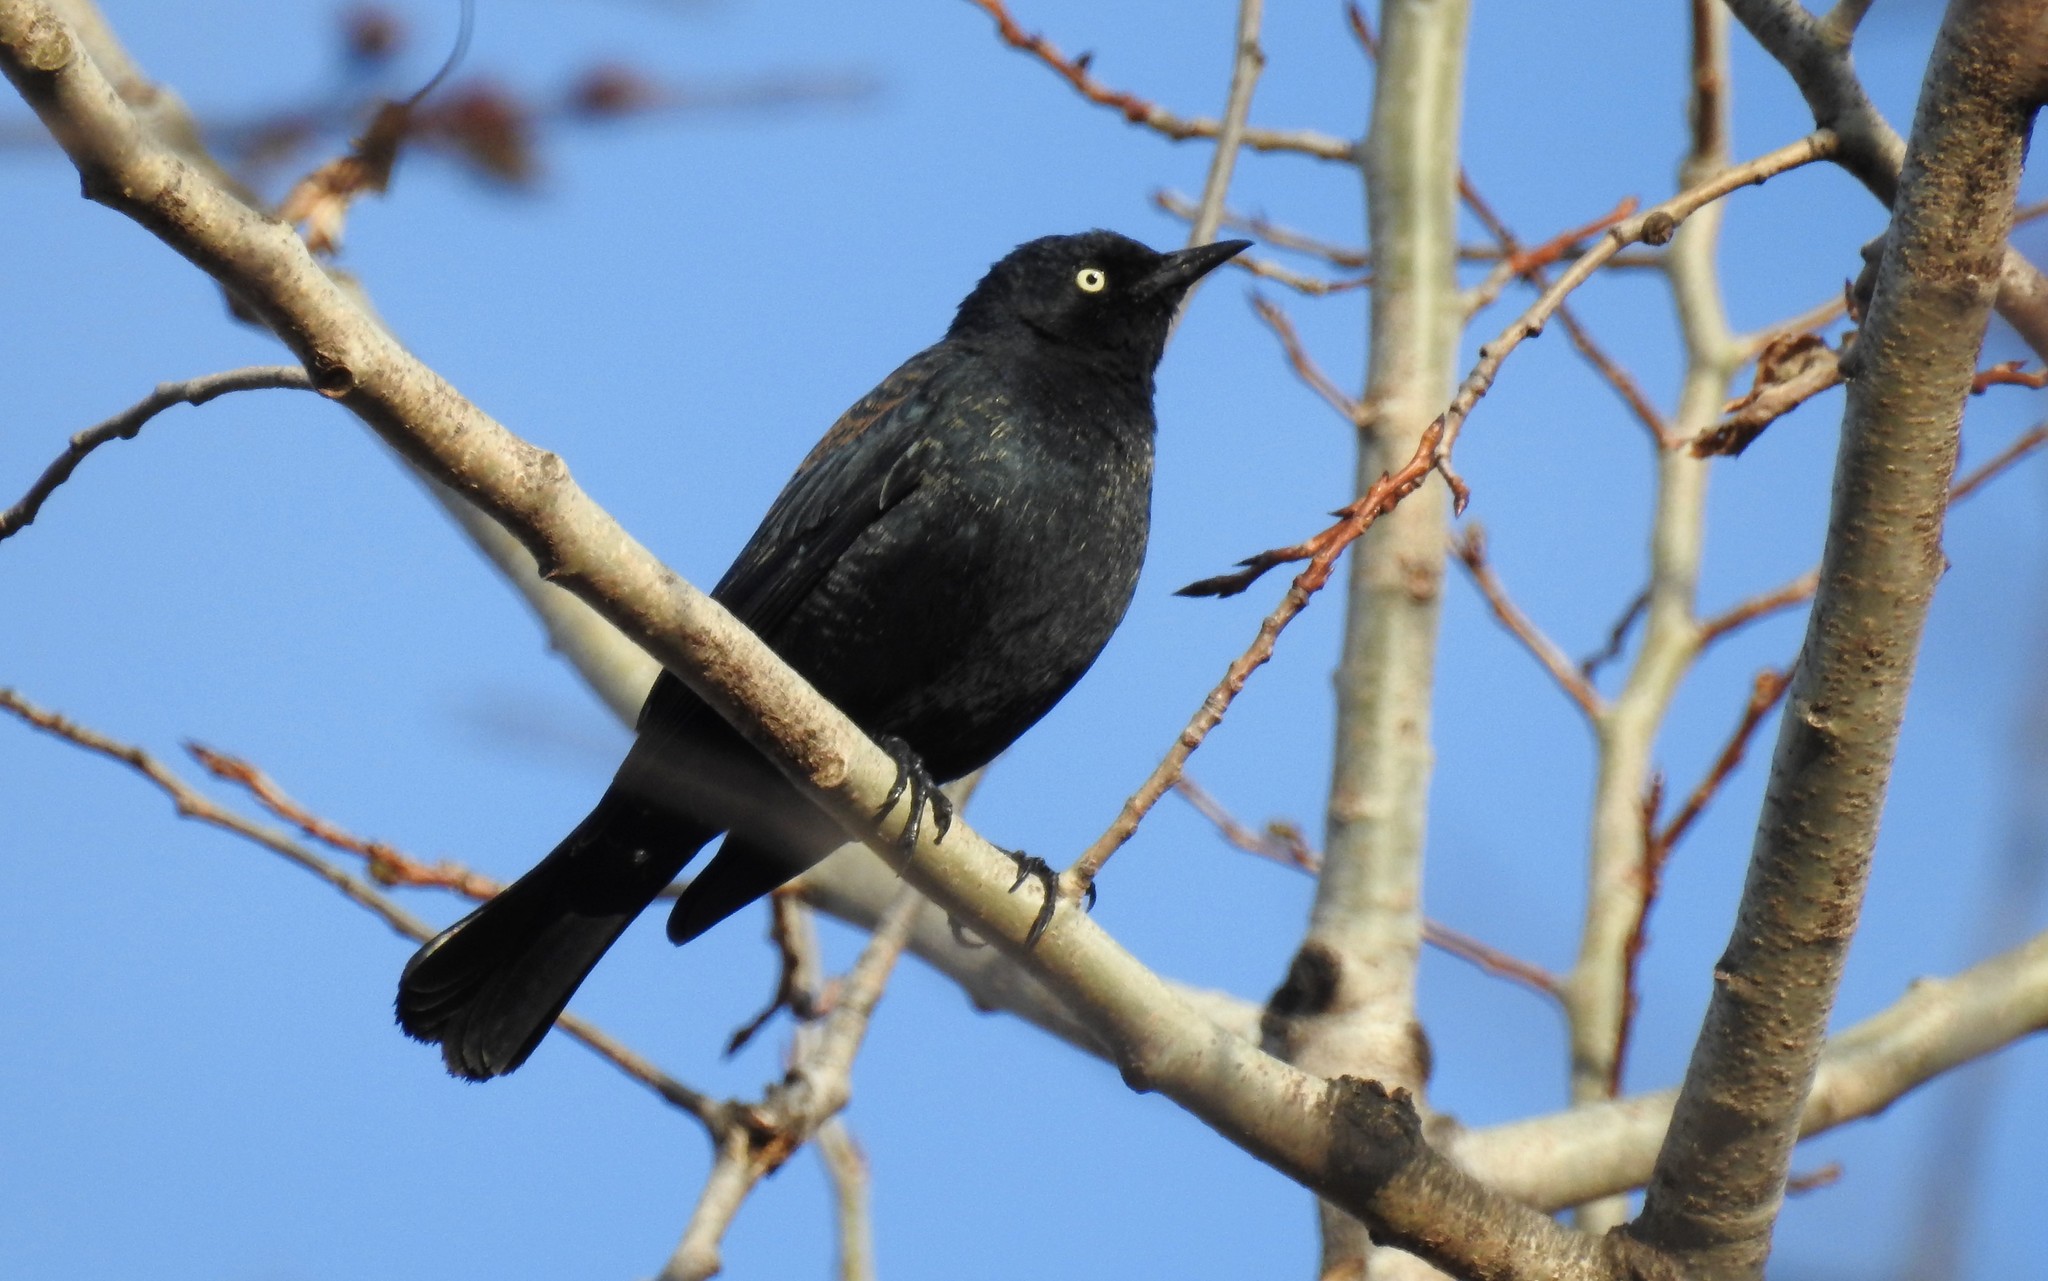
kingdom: Animalia
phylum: Chordata
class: Aves
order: Passeriformes
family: Icteridae
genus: Euphagus
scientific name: Euphagus carolinus
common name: Rusty blackbird
